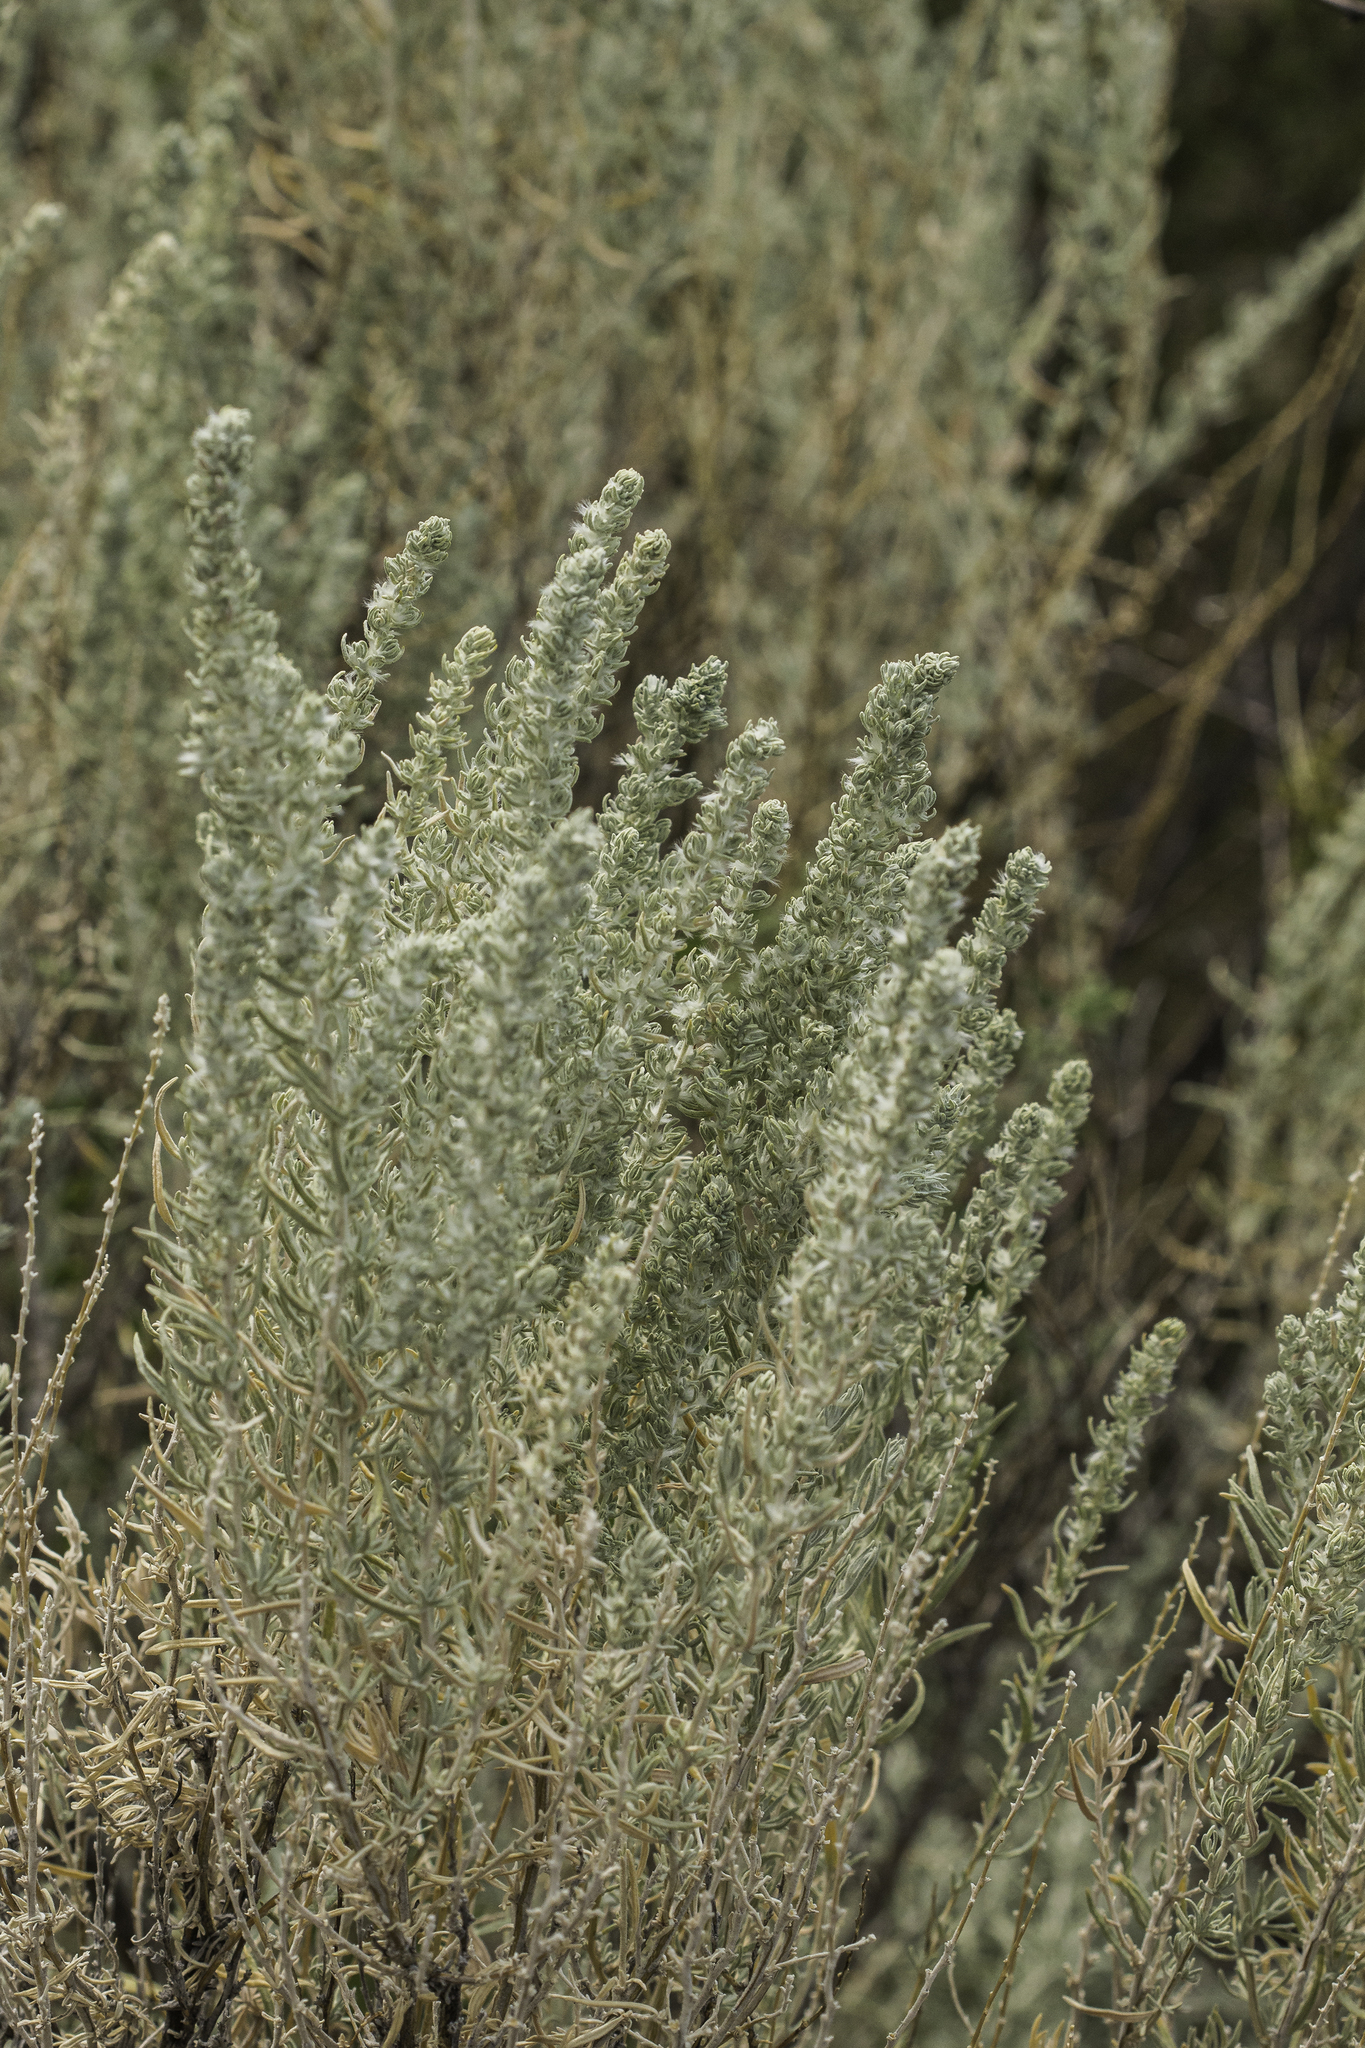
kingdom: Plantae
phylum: Tracheophyta
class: Magnoliopsida
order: Caryophyllales
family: Amaranthaceae
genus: Krascheninnikovia
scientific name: Krascheninnikovia lanata
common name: Winterfat
